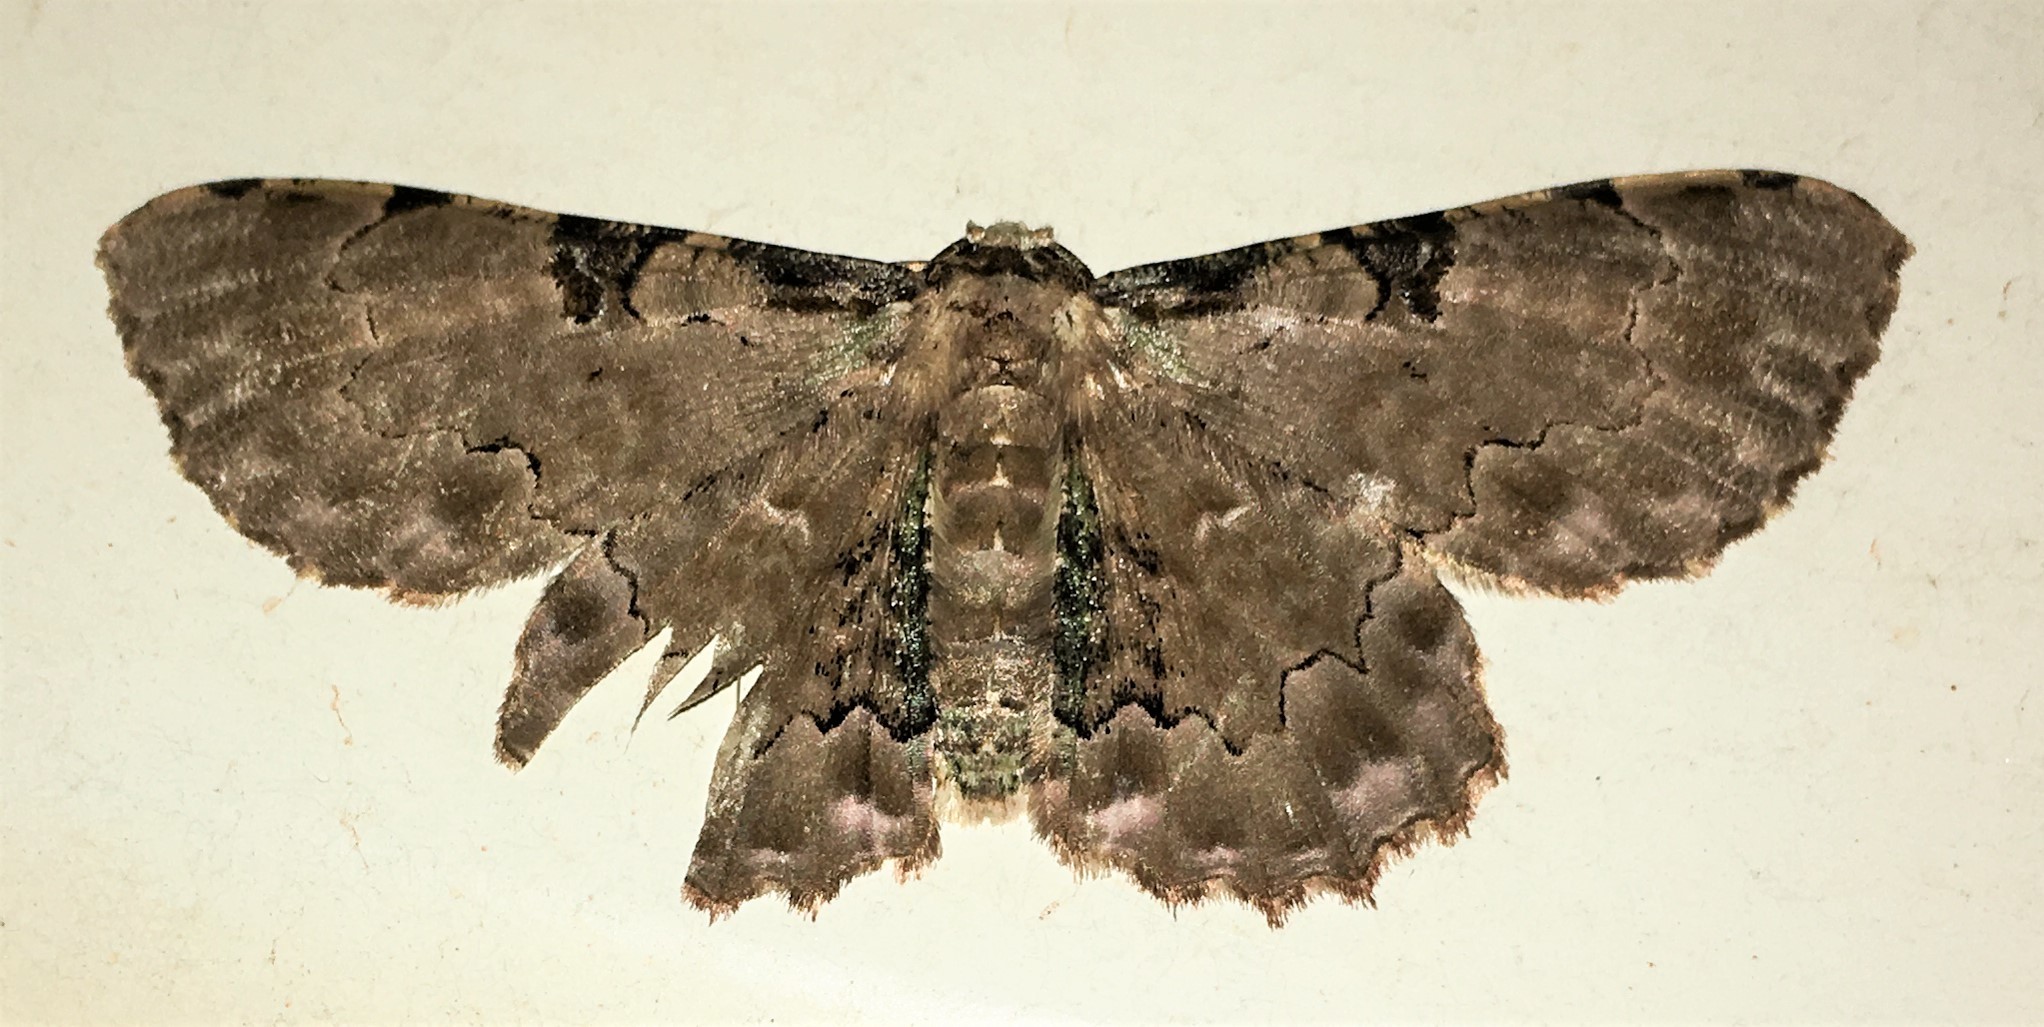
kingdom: Animalia
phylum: Arthropoda
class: Insecta
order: Lepidoptera
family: Geometridae
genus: Ergavia
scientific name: Ergavia merops
